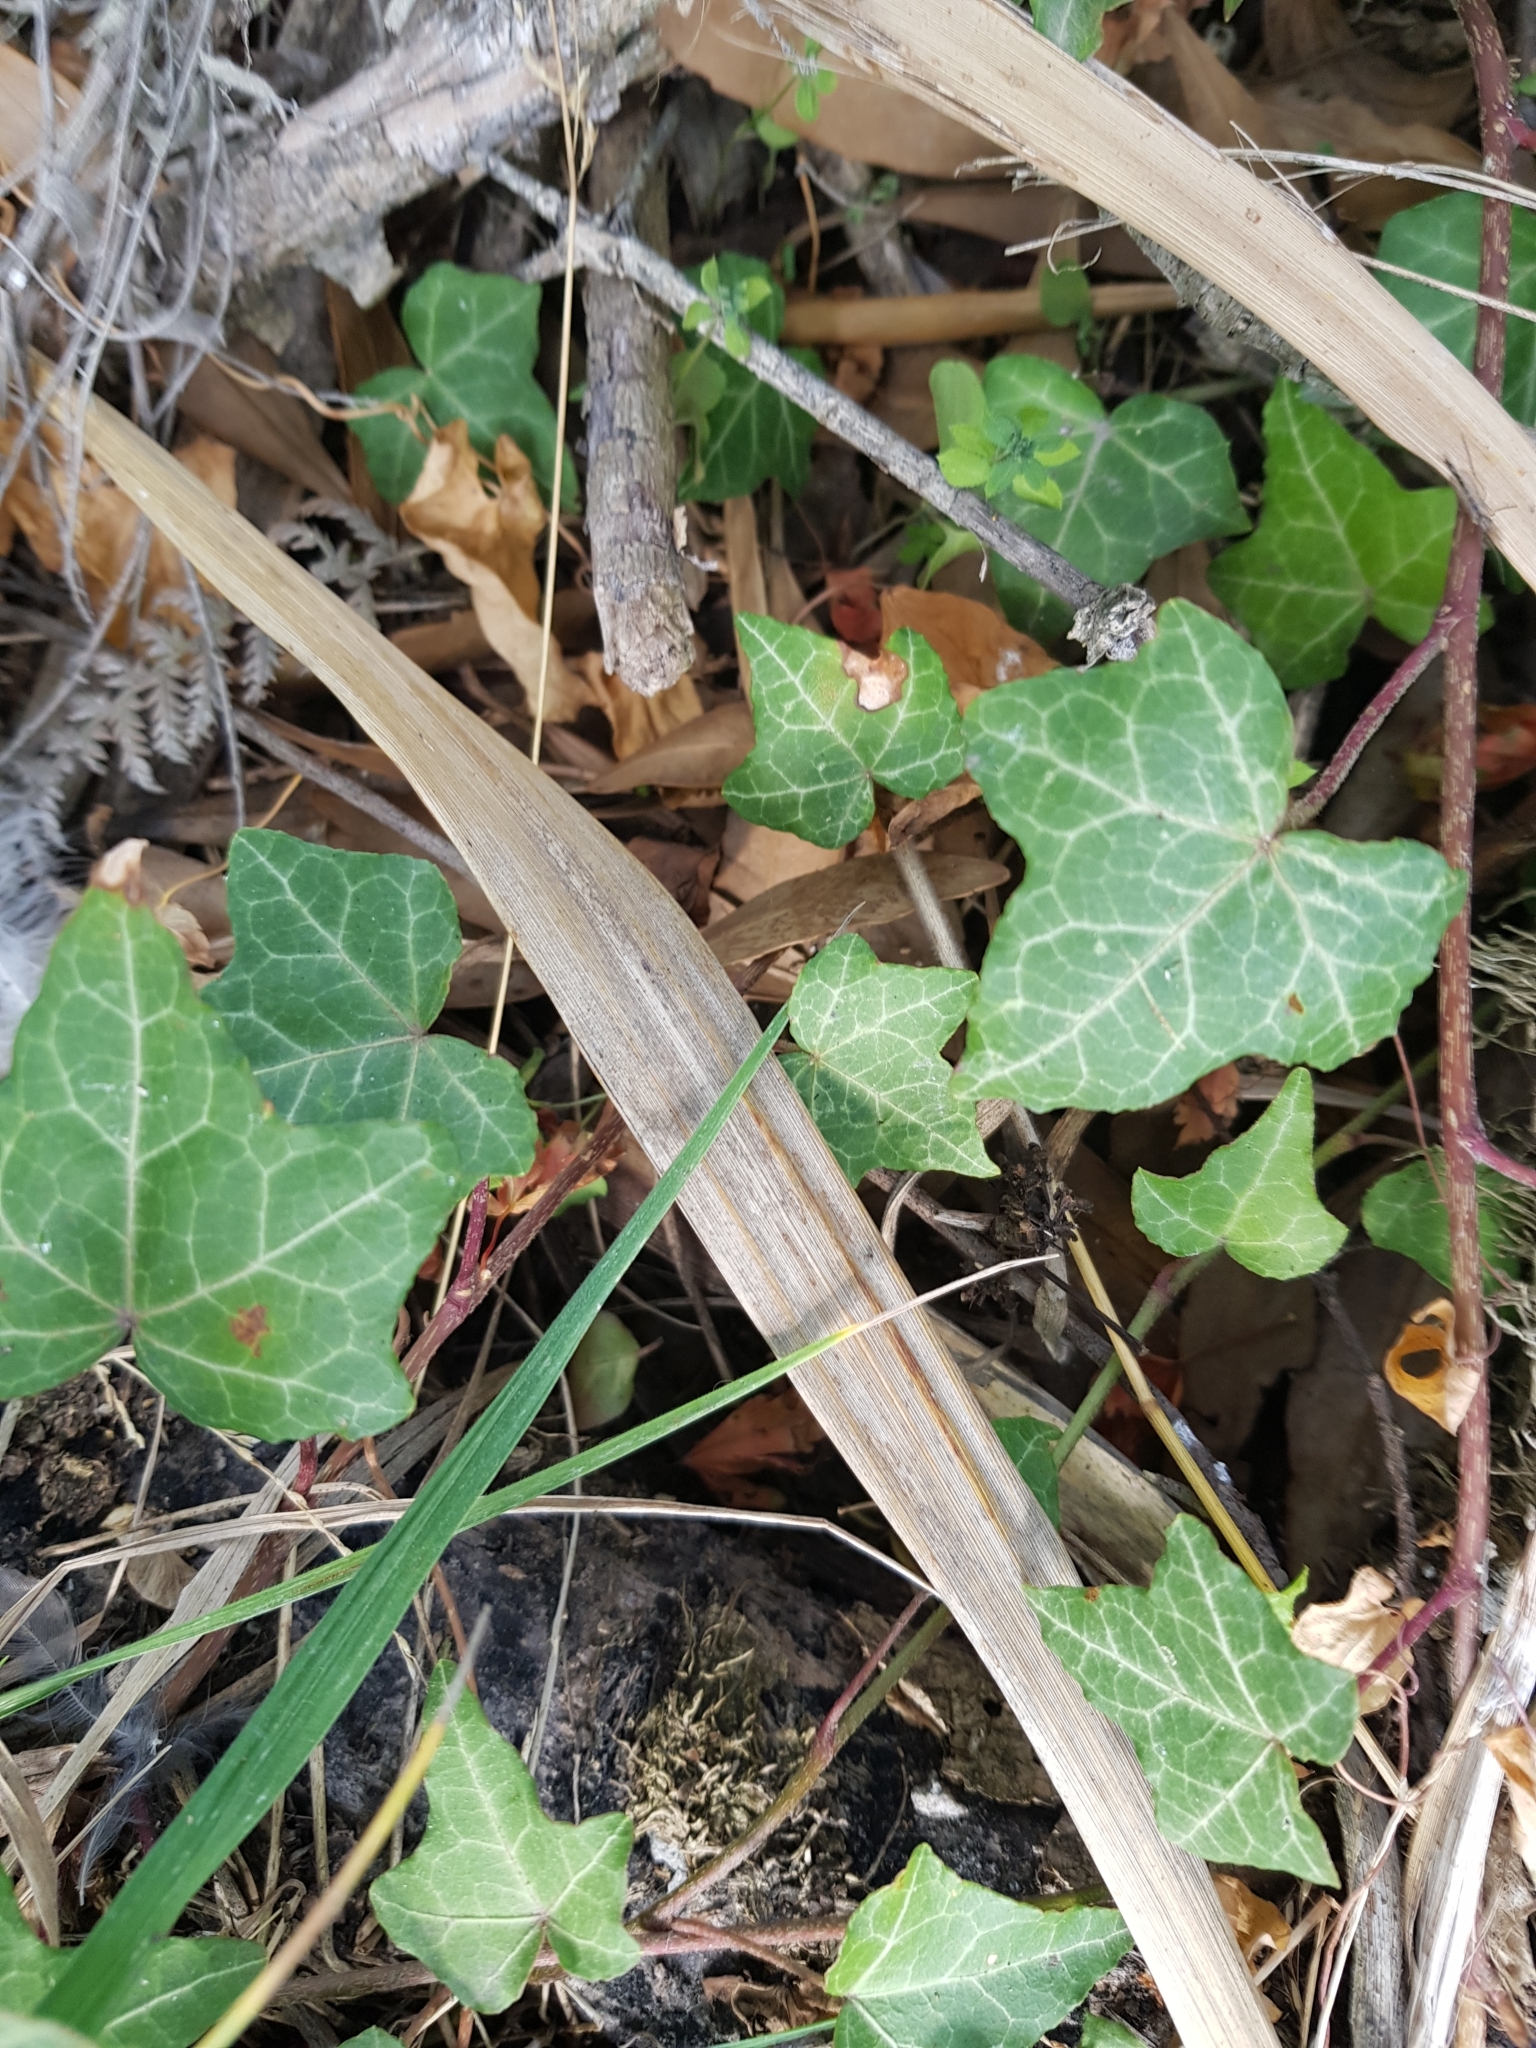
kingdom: Plantae
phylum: Tracheophyta
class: Magnoliopsida
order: Apiales
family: Araliaceae
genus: Hedera
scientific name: Hedera helix
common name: Ivy
